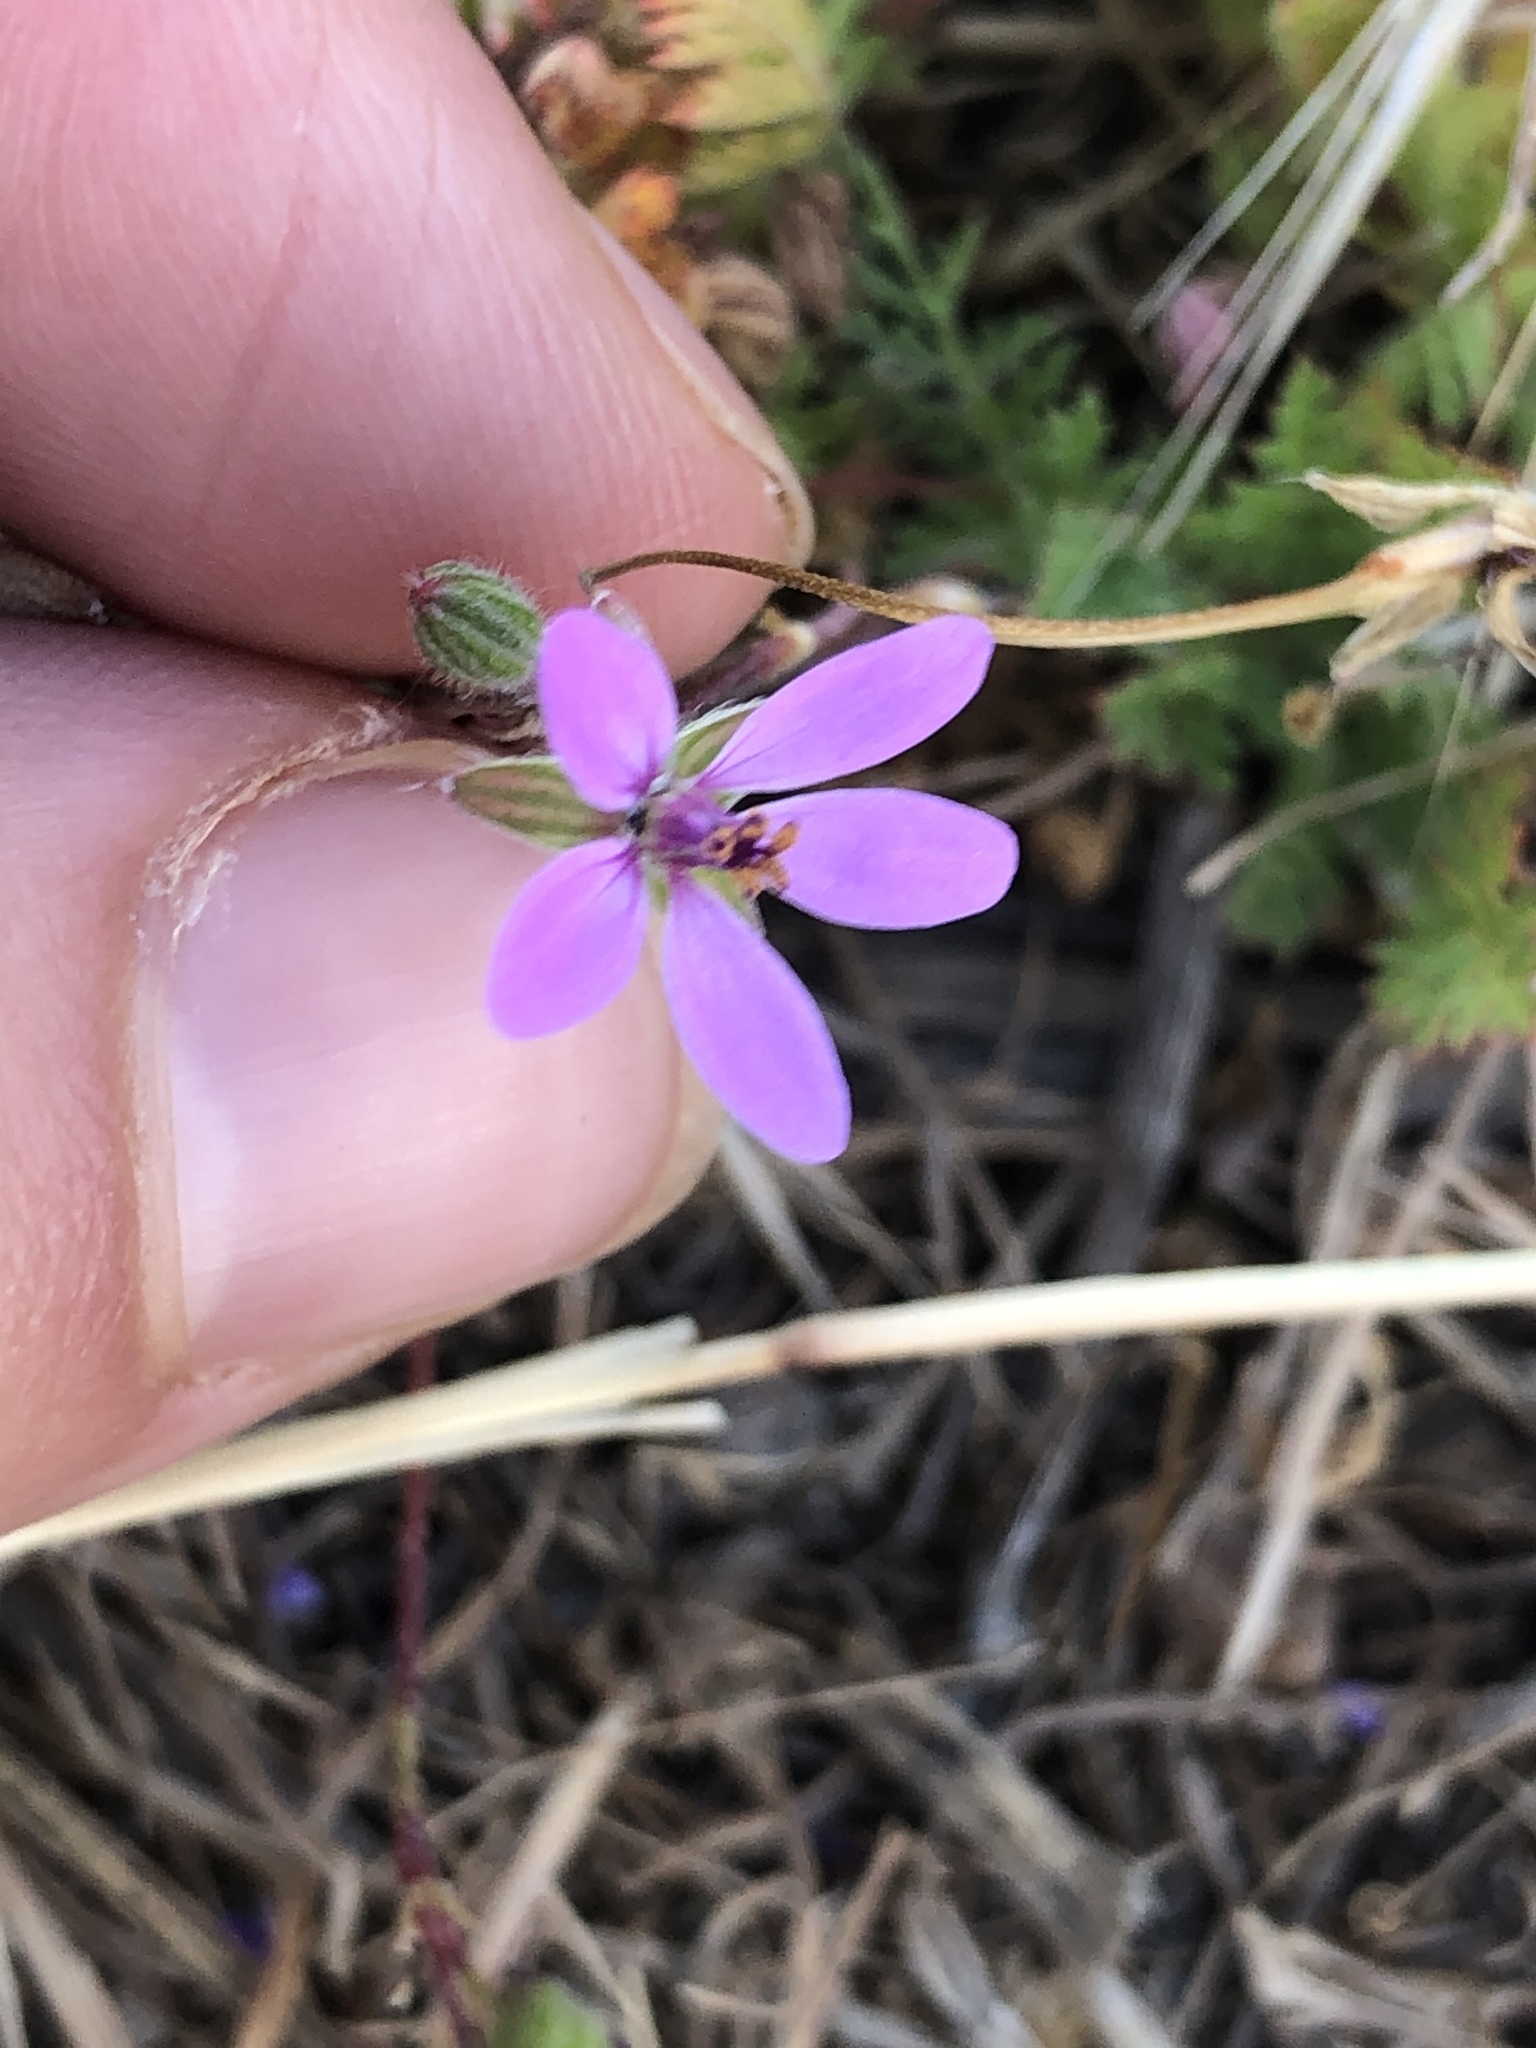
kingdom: Plantae
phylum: Tracheophyta
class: Magnoliopsida
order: Geraniales
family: Geraniaceae
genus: Erodium
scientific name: Erodium cicutarium
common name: Common stork's-bill
